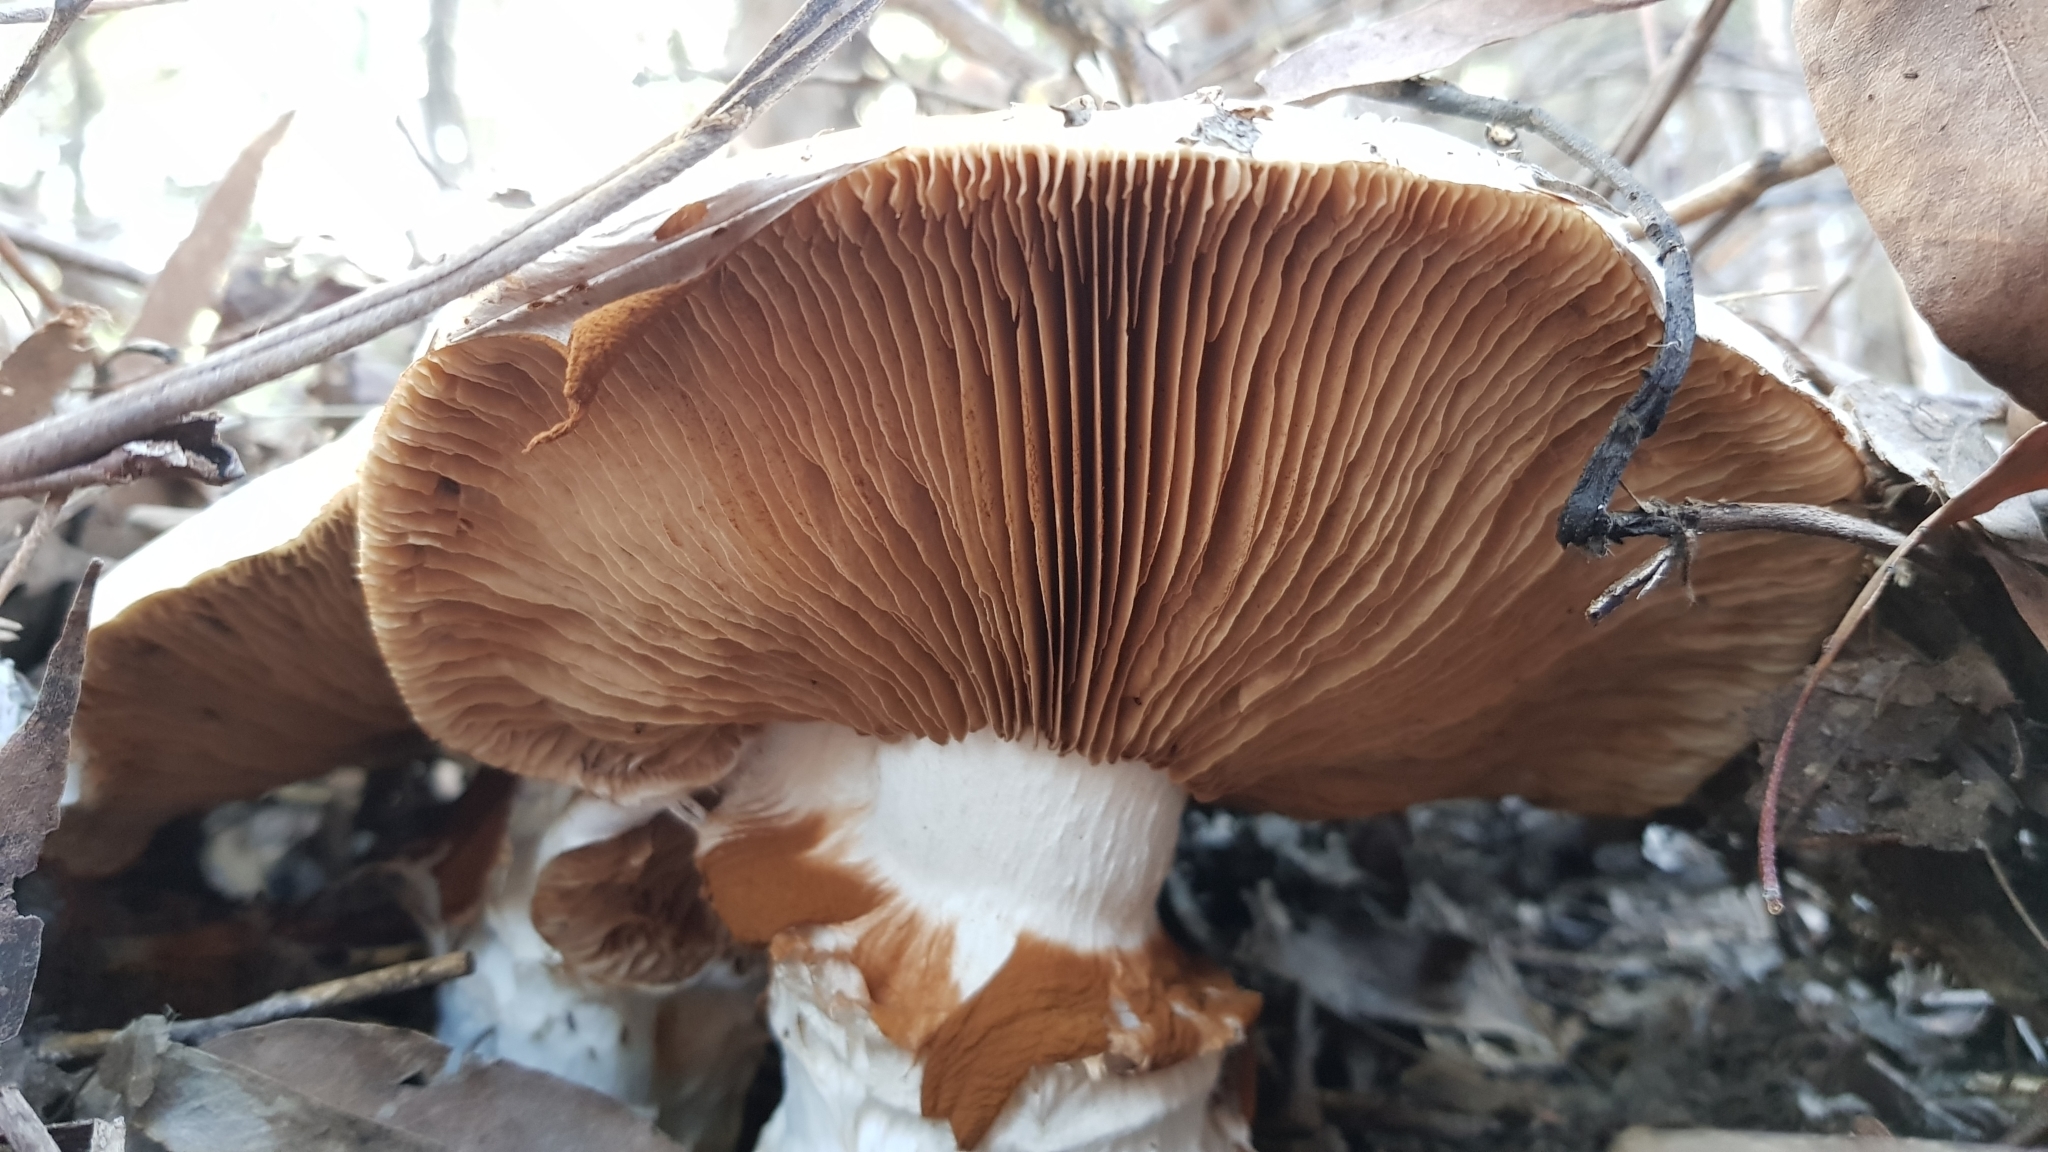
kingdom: Fungi
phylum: Basidiomycota
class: Agaricomycetes
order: Agaricales
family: Cortinariaceae
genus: Austrocortinarius
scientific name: Austrocortinarius australiensis
